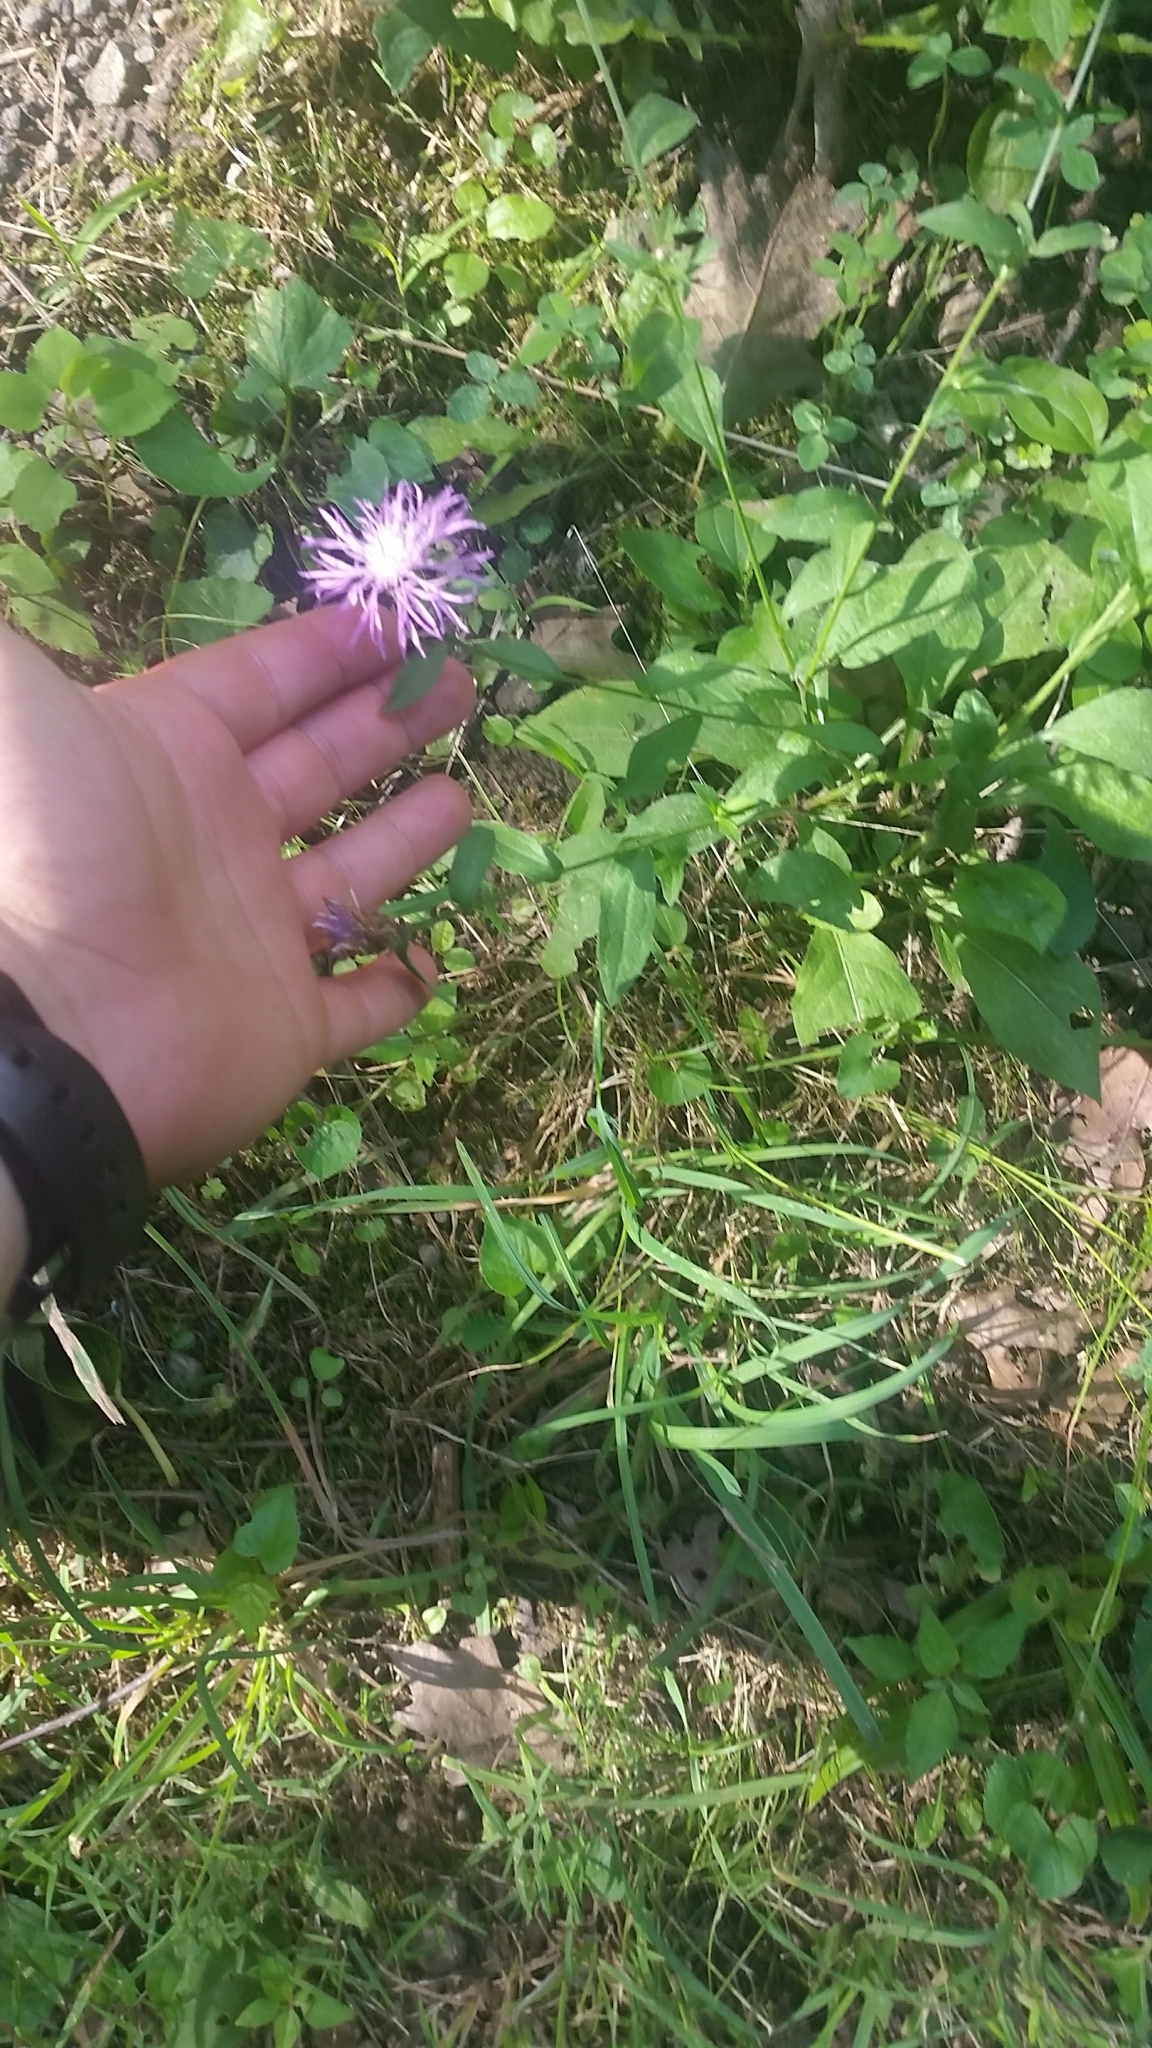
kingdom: Plantae
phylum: Tracheophyta
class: Magnoliopsida
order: Asterales
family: Asteraceae
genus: Centaurea
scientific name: Centaurea
